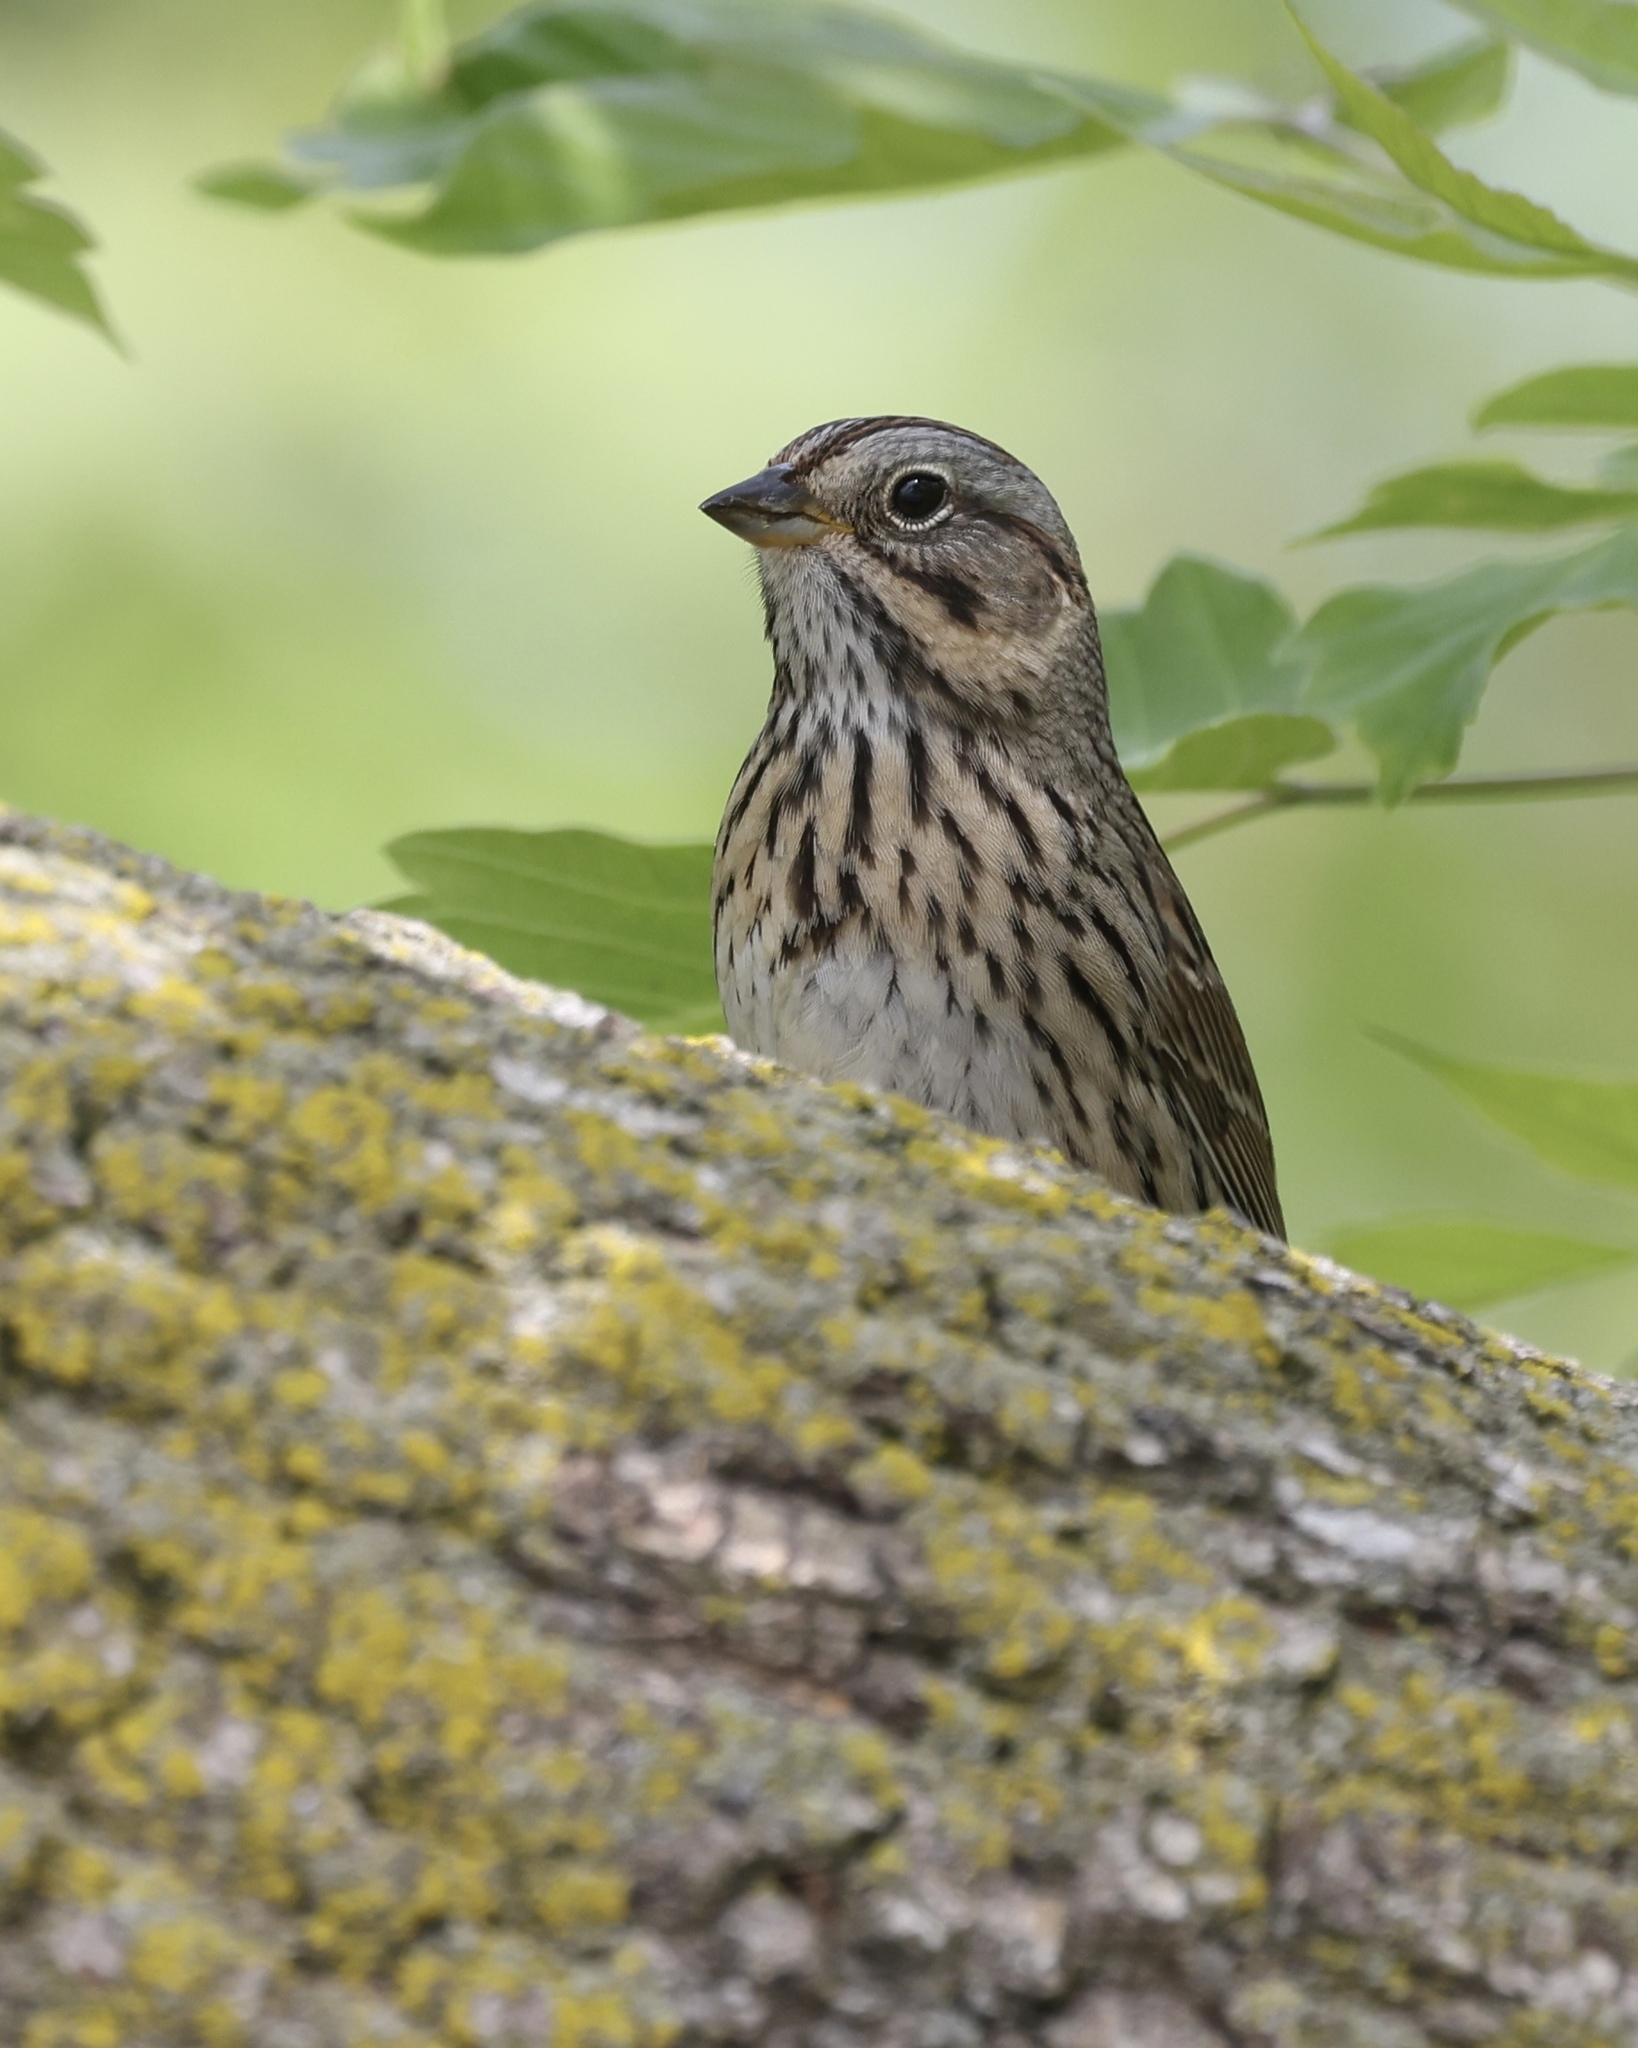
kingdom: Animalia
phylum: Chordata
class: Aves
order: Passeriformes
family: Passerellidae
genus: Melospiza
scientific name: Melospiza lincolnii
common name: Lincoln's sparrow
